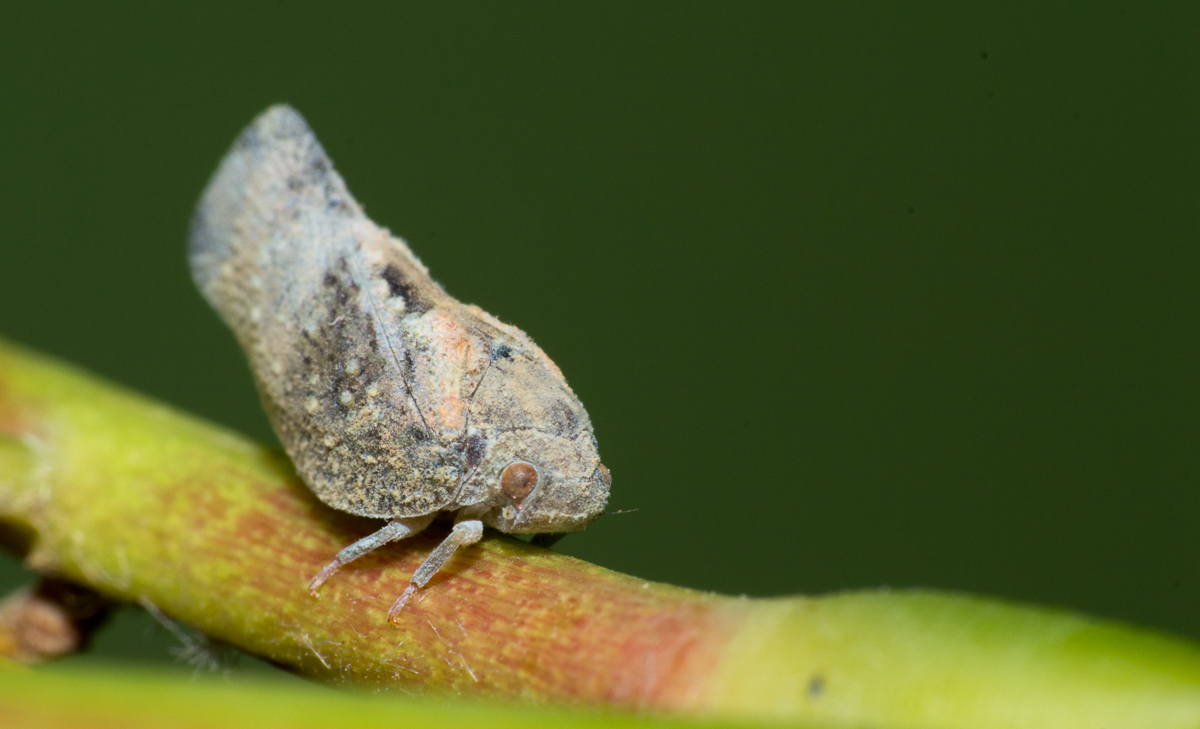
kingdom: Animalia
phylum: Arthropoda
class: Insecta
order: Hemiptera
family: Flatidae
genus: Epormenis
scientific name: Epormenis cestri
